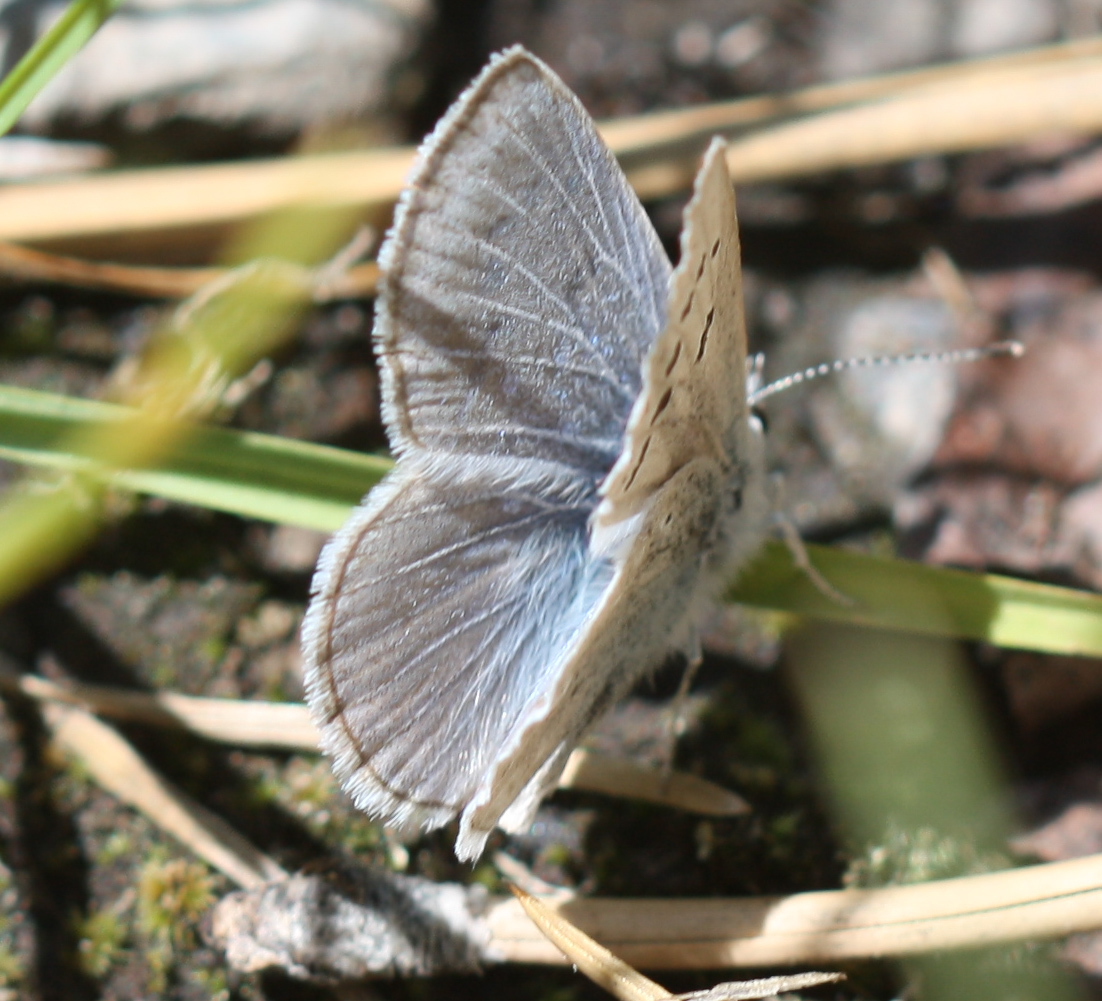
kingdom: Animalia
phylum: Arthropoda
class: Insecta
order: Lepidoptera
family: Lycaenidae
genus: Icaricia
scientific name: Icaricia icarioides
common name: Boisduval's blue
